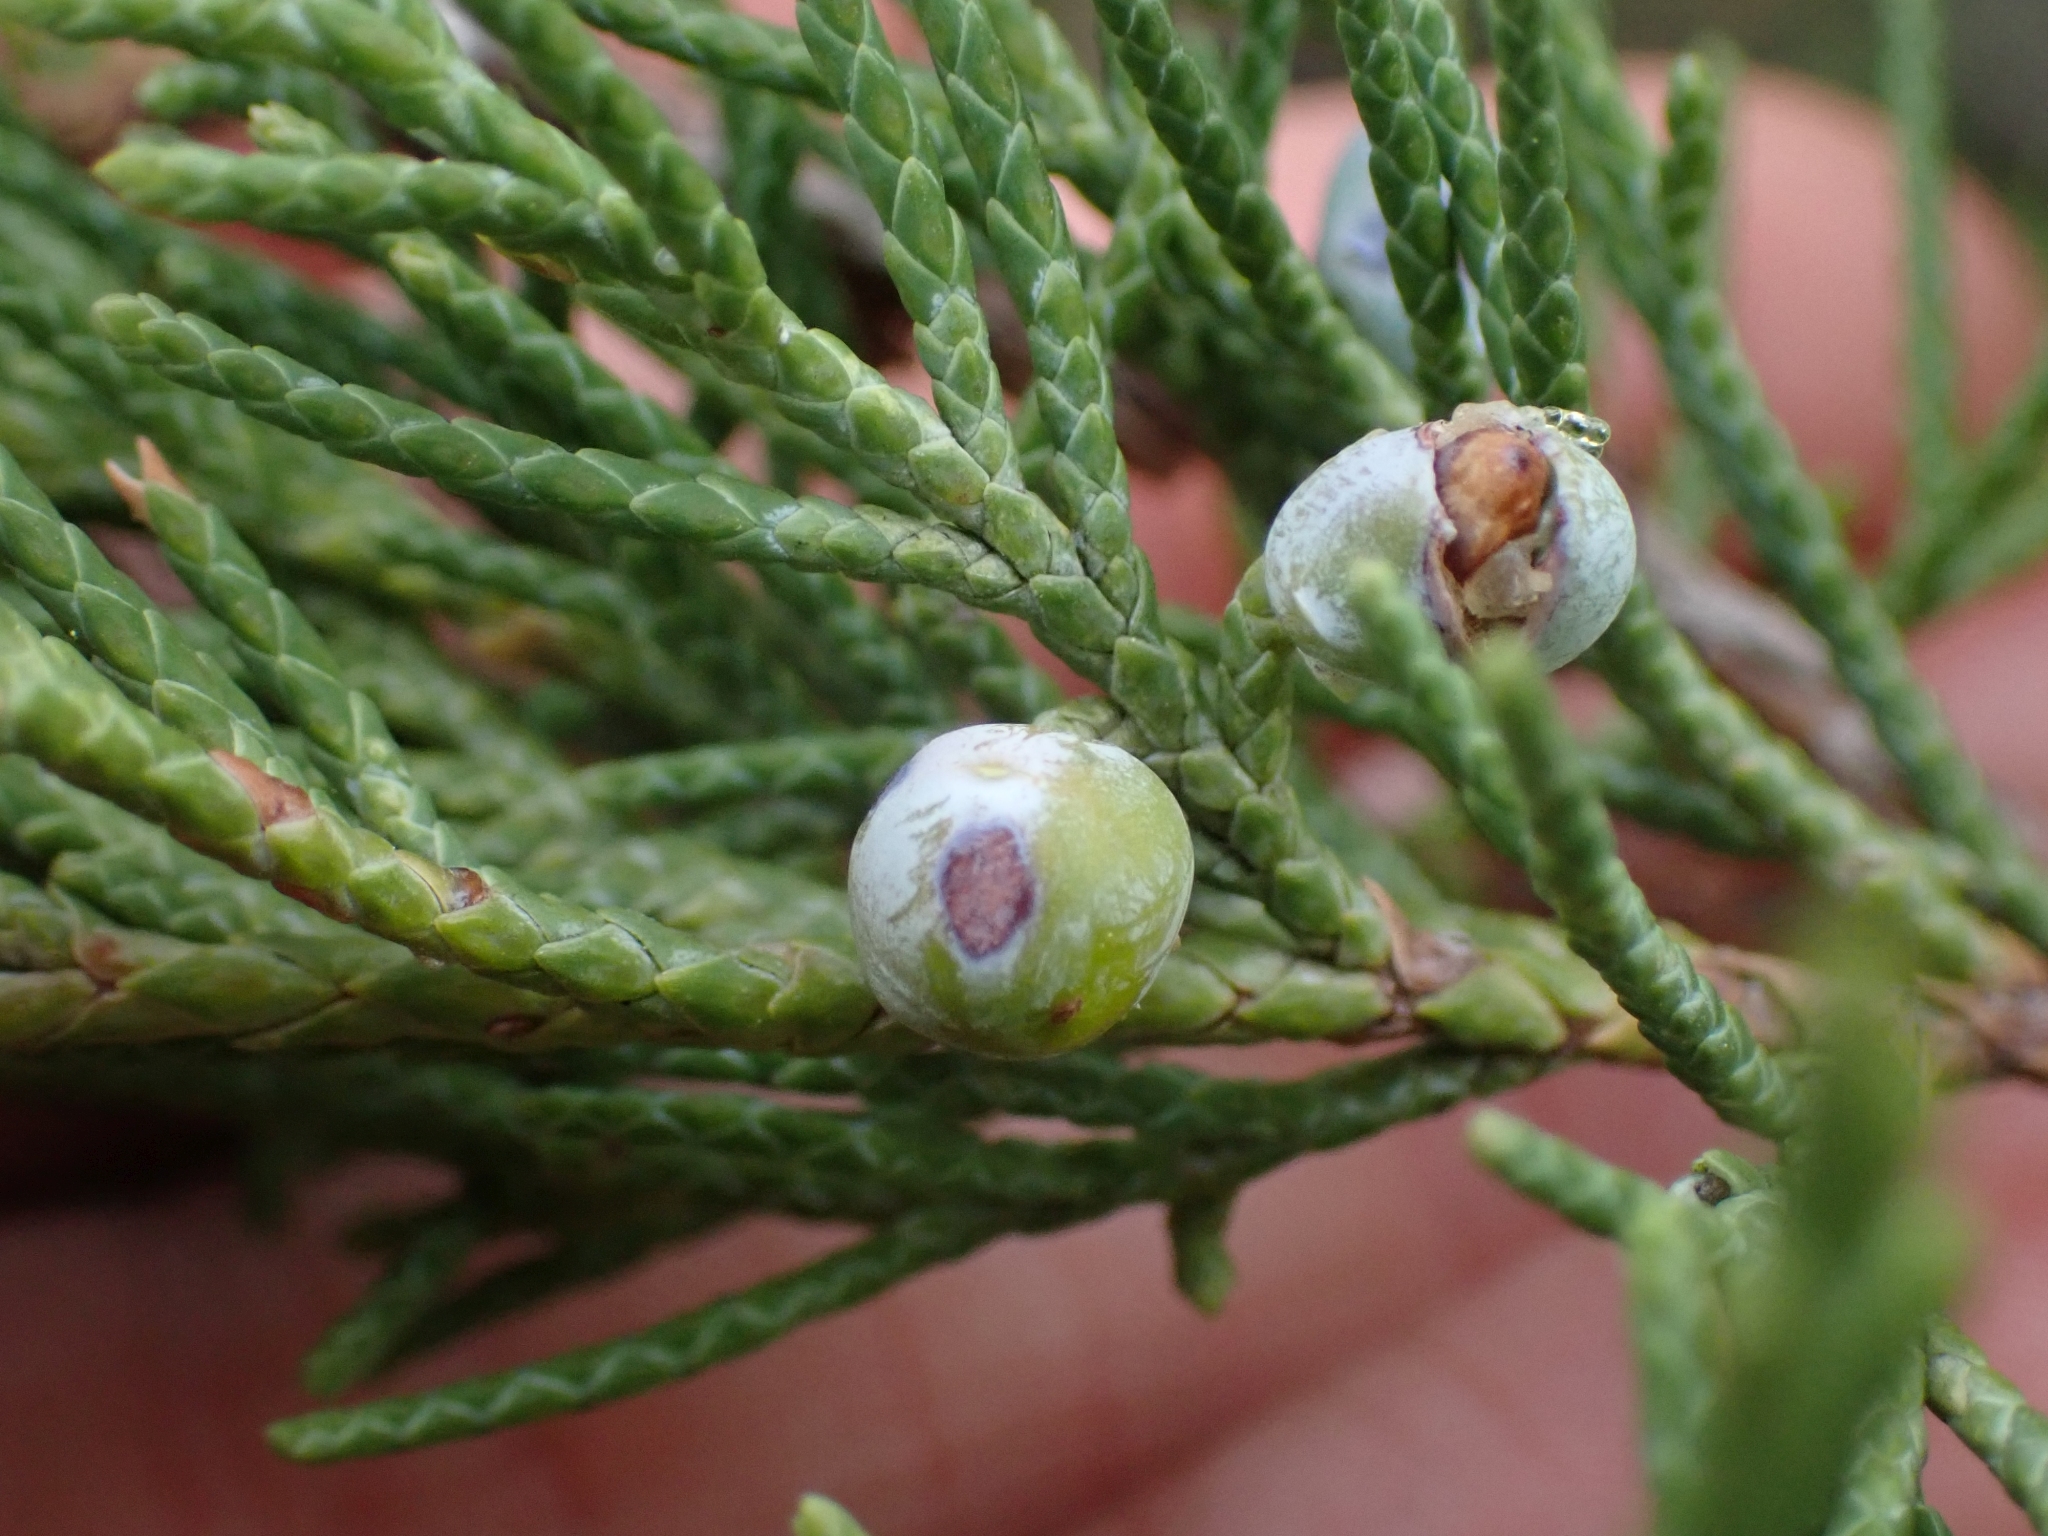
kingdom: Plantae
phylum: Tracheophyta
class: Pinopsida
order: Pinales
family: Cupressaceae
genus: Juniperus
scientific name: Juniperus scopulorum
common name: Rocky mountain juniper
